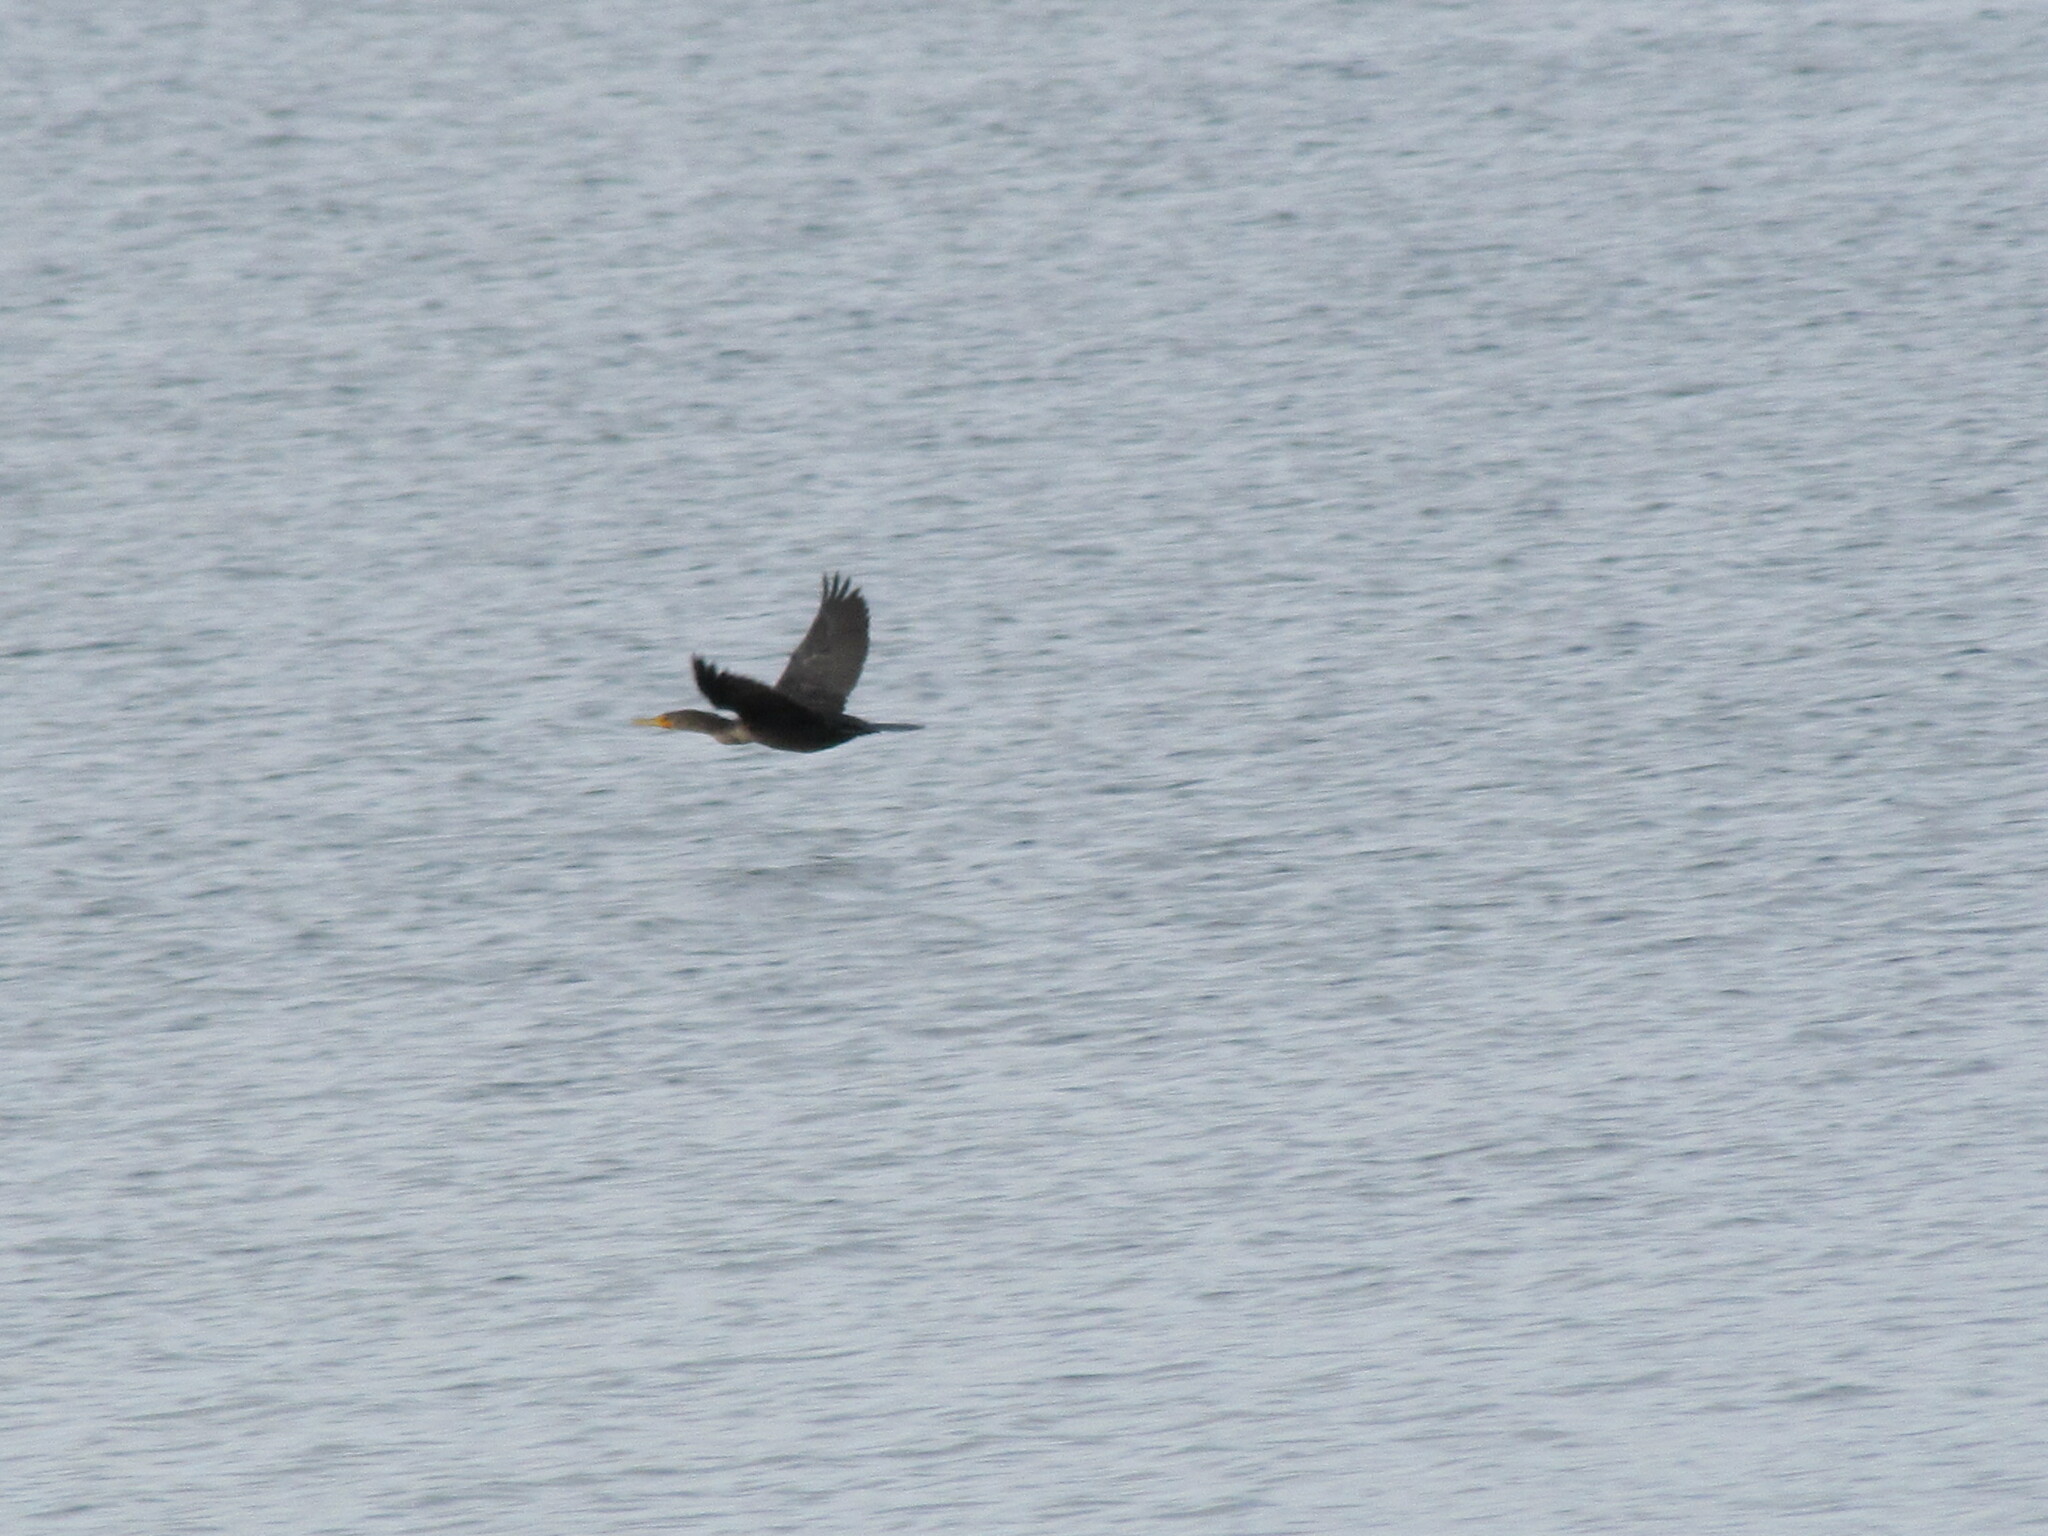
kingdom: Animalia
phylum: Chordata
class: Aves
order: Suliformes
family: Phalacrocoracidae
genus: Phalacrocorax
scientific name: Phalacrocorax auritus
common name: Double-crested cormorant
